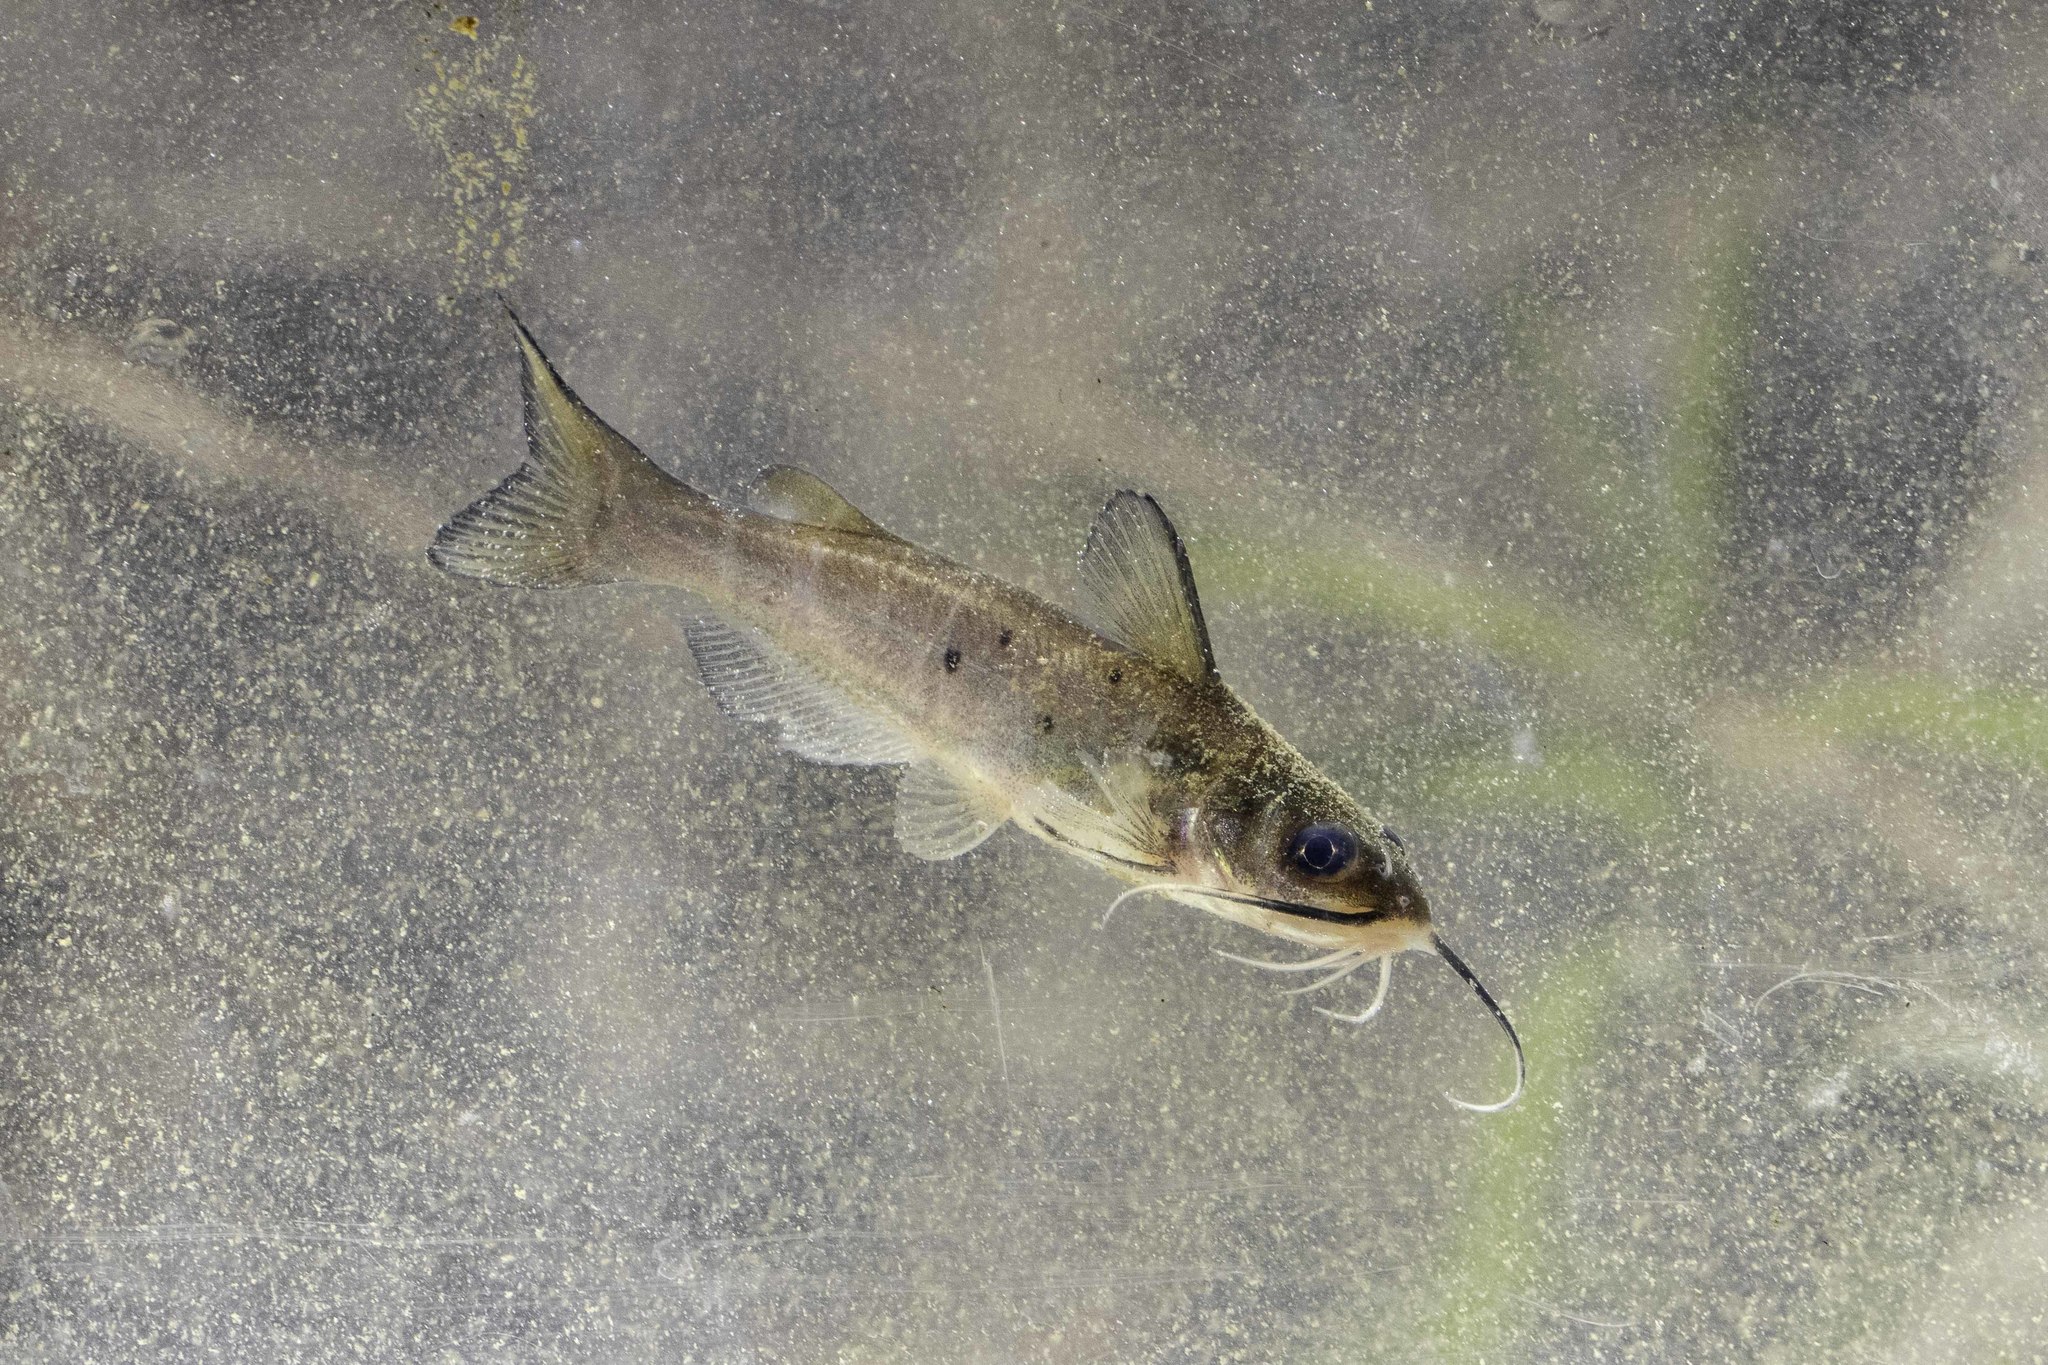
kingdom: Animalia
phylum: Chordata
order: Siluriformes
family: Ictaluridae
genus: Ictalurus
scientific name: Ictalurus punctatus
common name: Channel catfish
